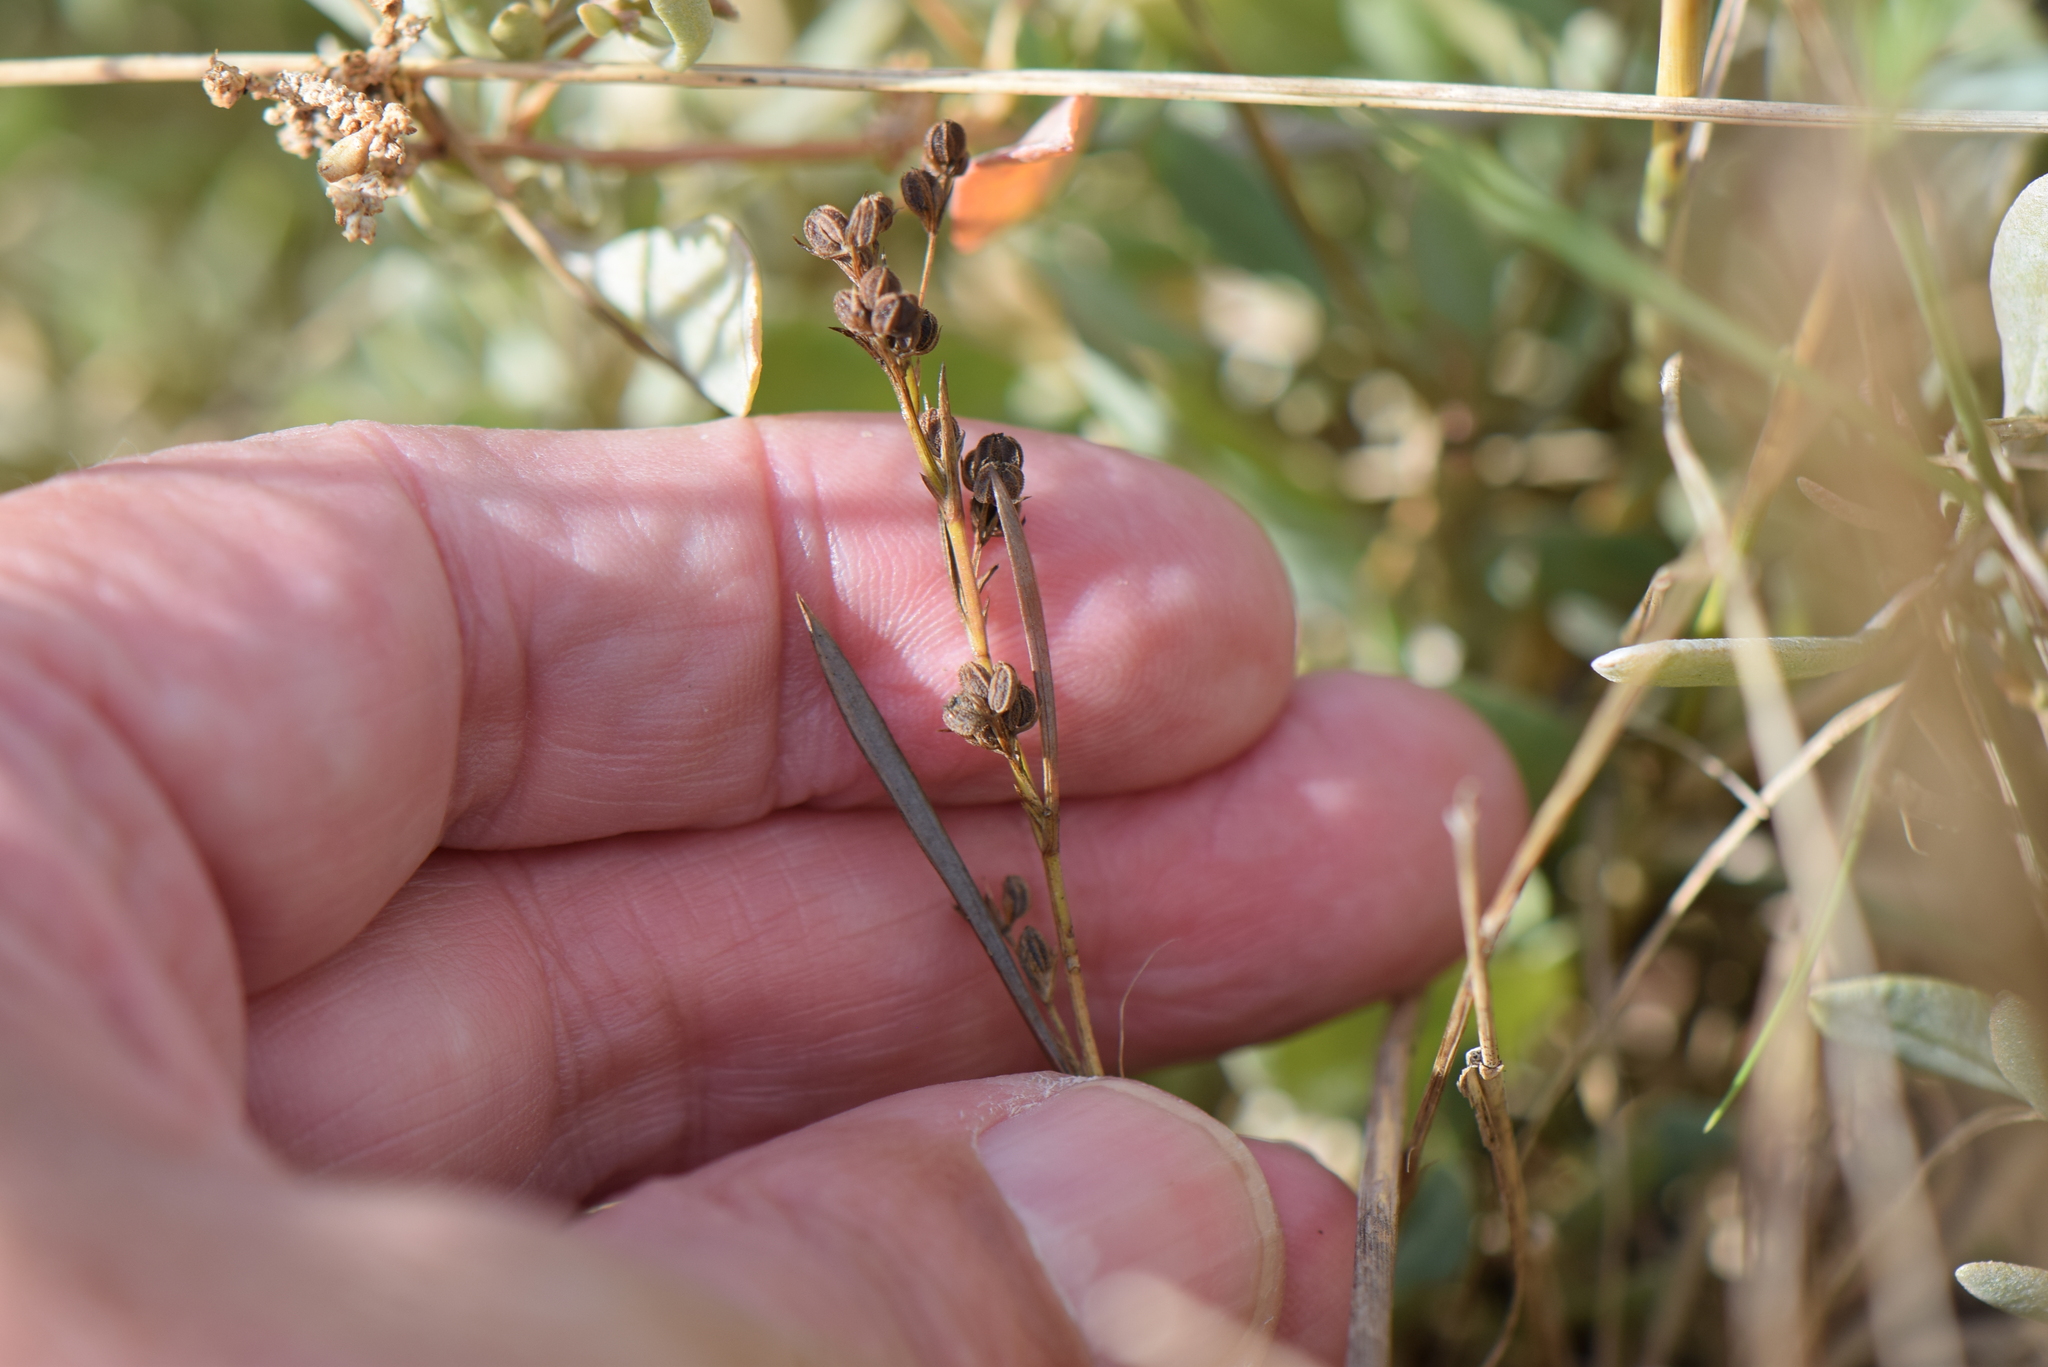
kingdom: Plantae
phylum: Tracheophyta
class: Magnoliopsida
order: Apiales
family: Apiaceae
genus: Bupleurum
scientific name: Bupleurum tenuissimum
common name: Slender hare's-ear
